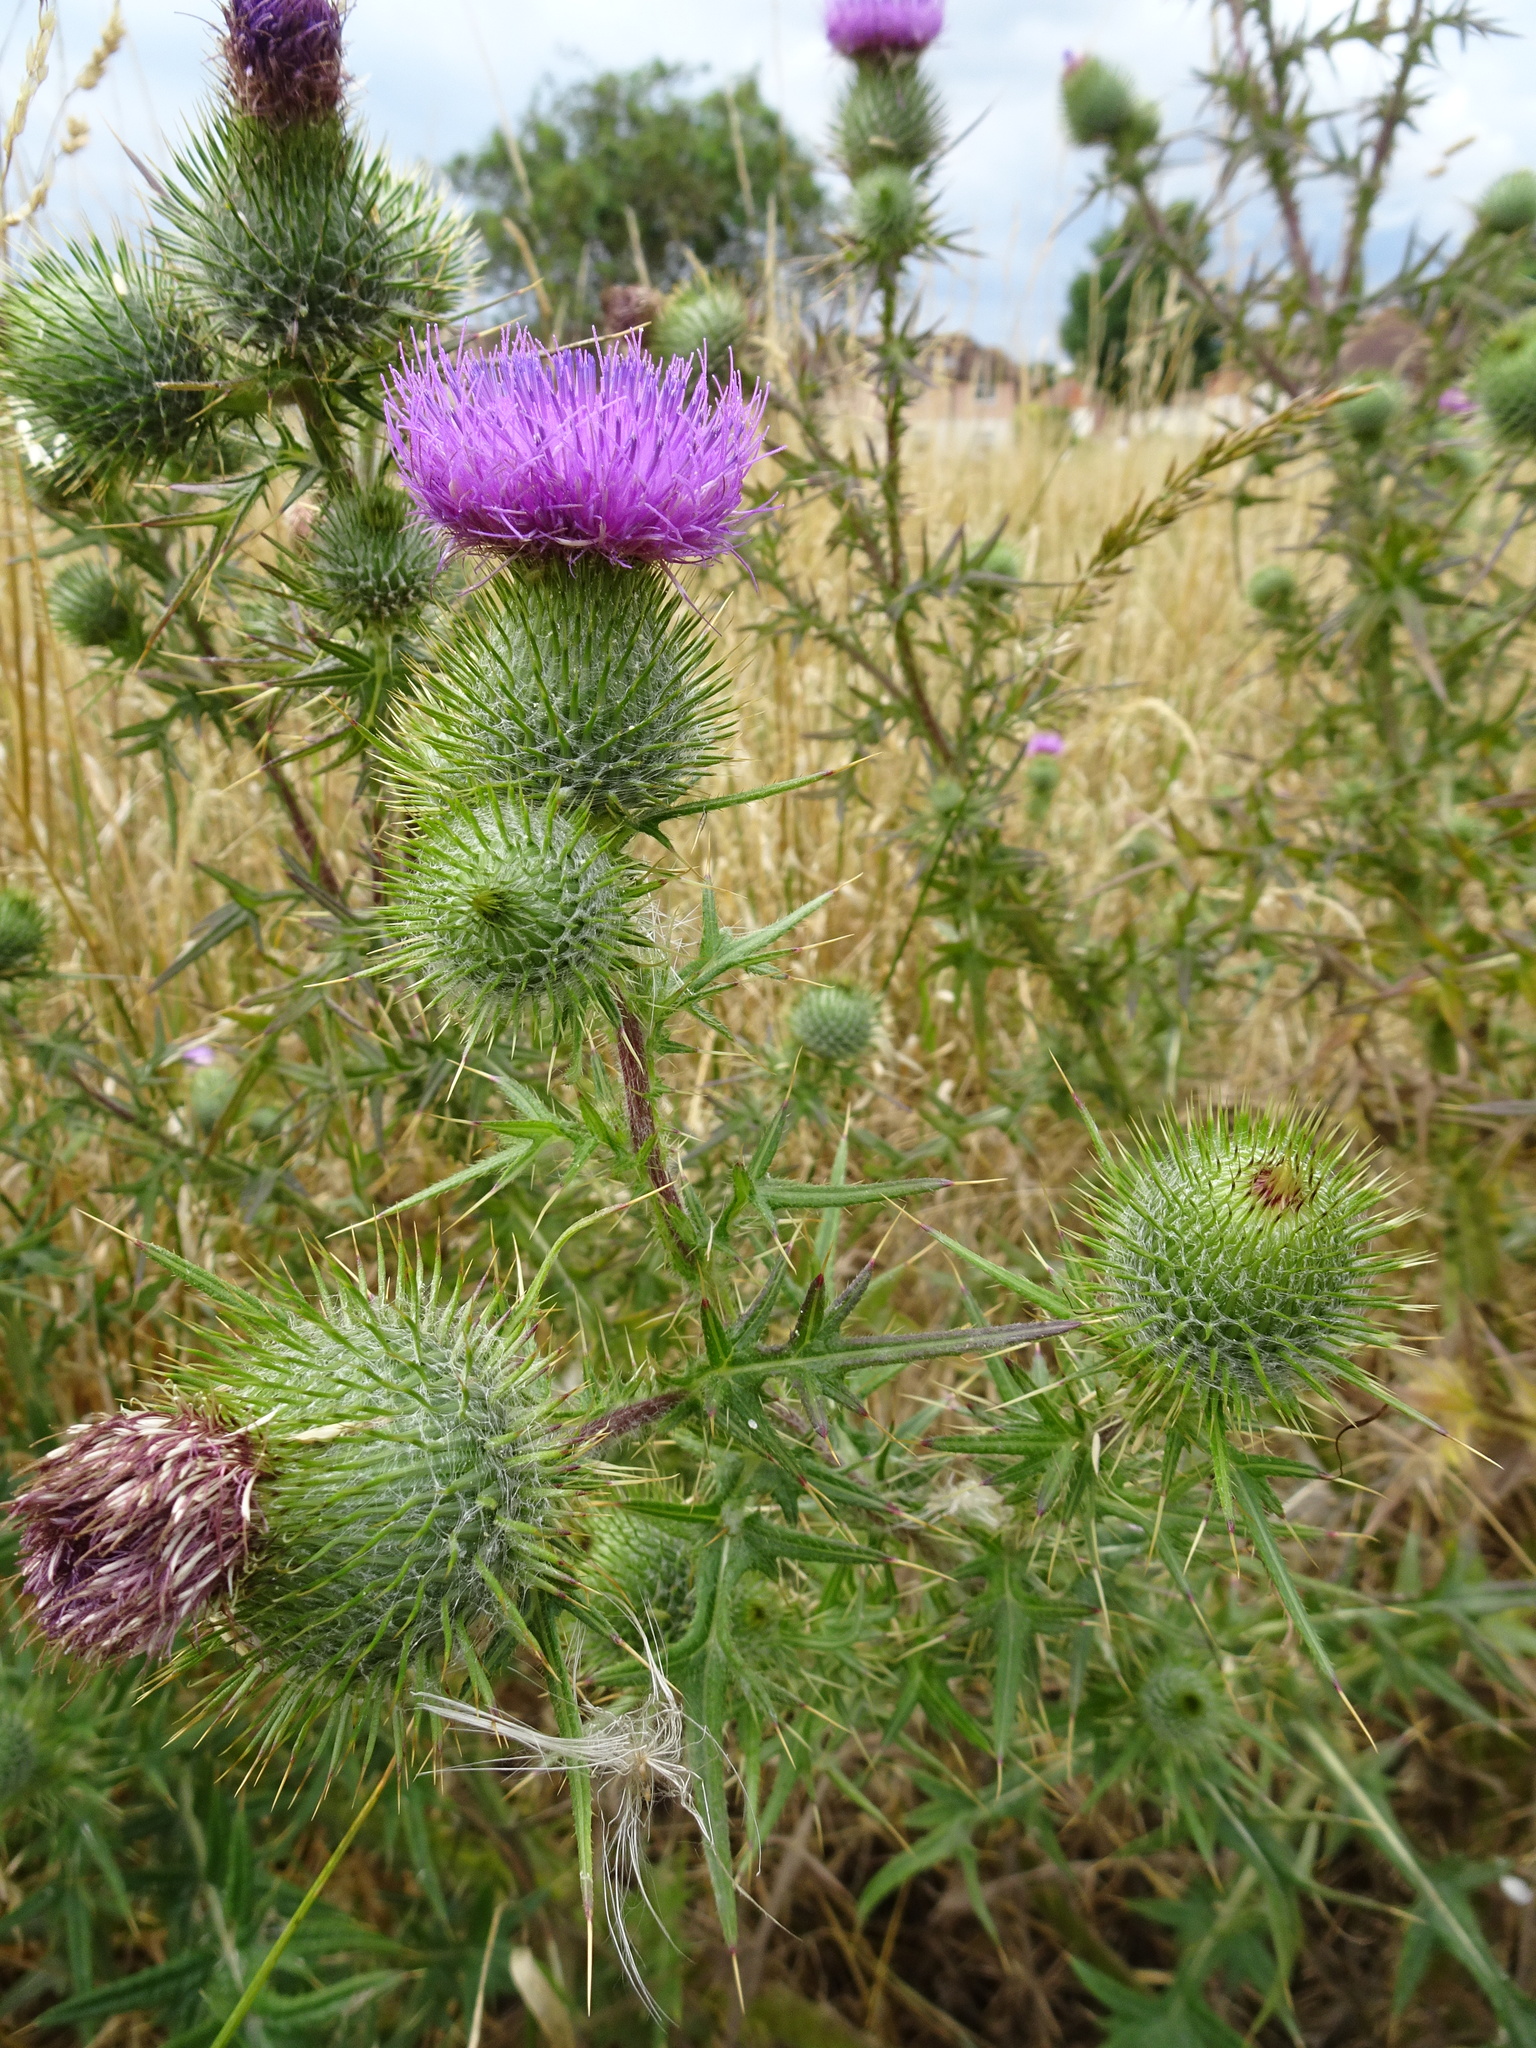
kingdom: Plantae
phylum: Tracheophyta
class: Magnoliopsida
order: Asterales
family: Asteraceae
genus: Cirsium
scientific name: Cirsium vulgare
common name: Bull thistle
